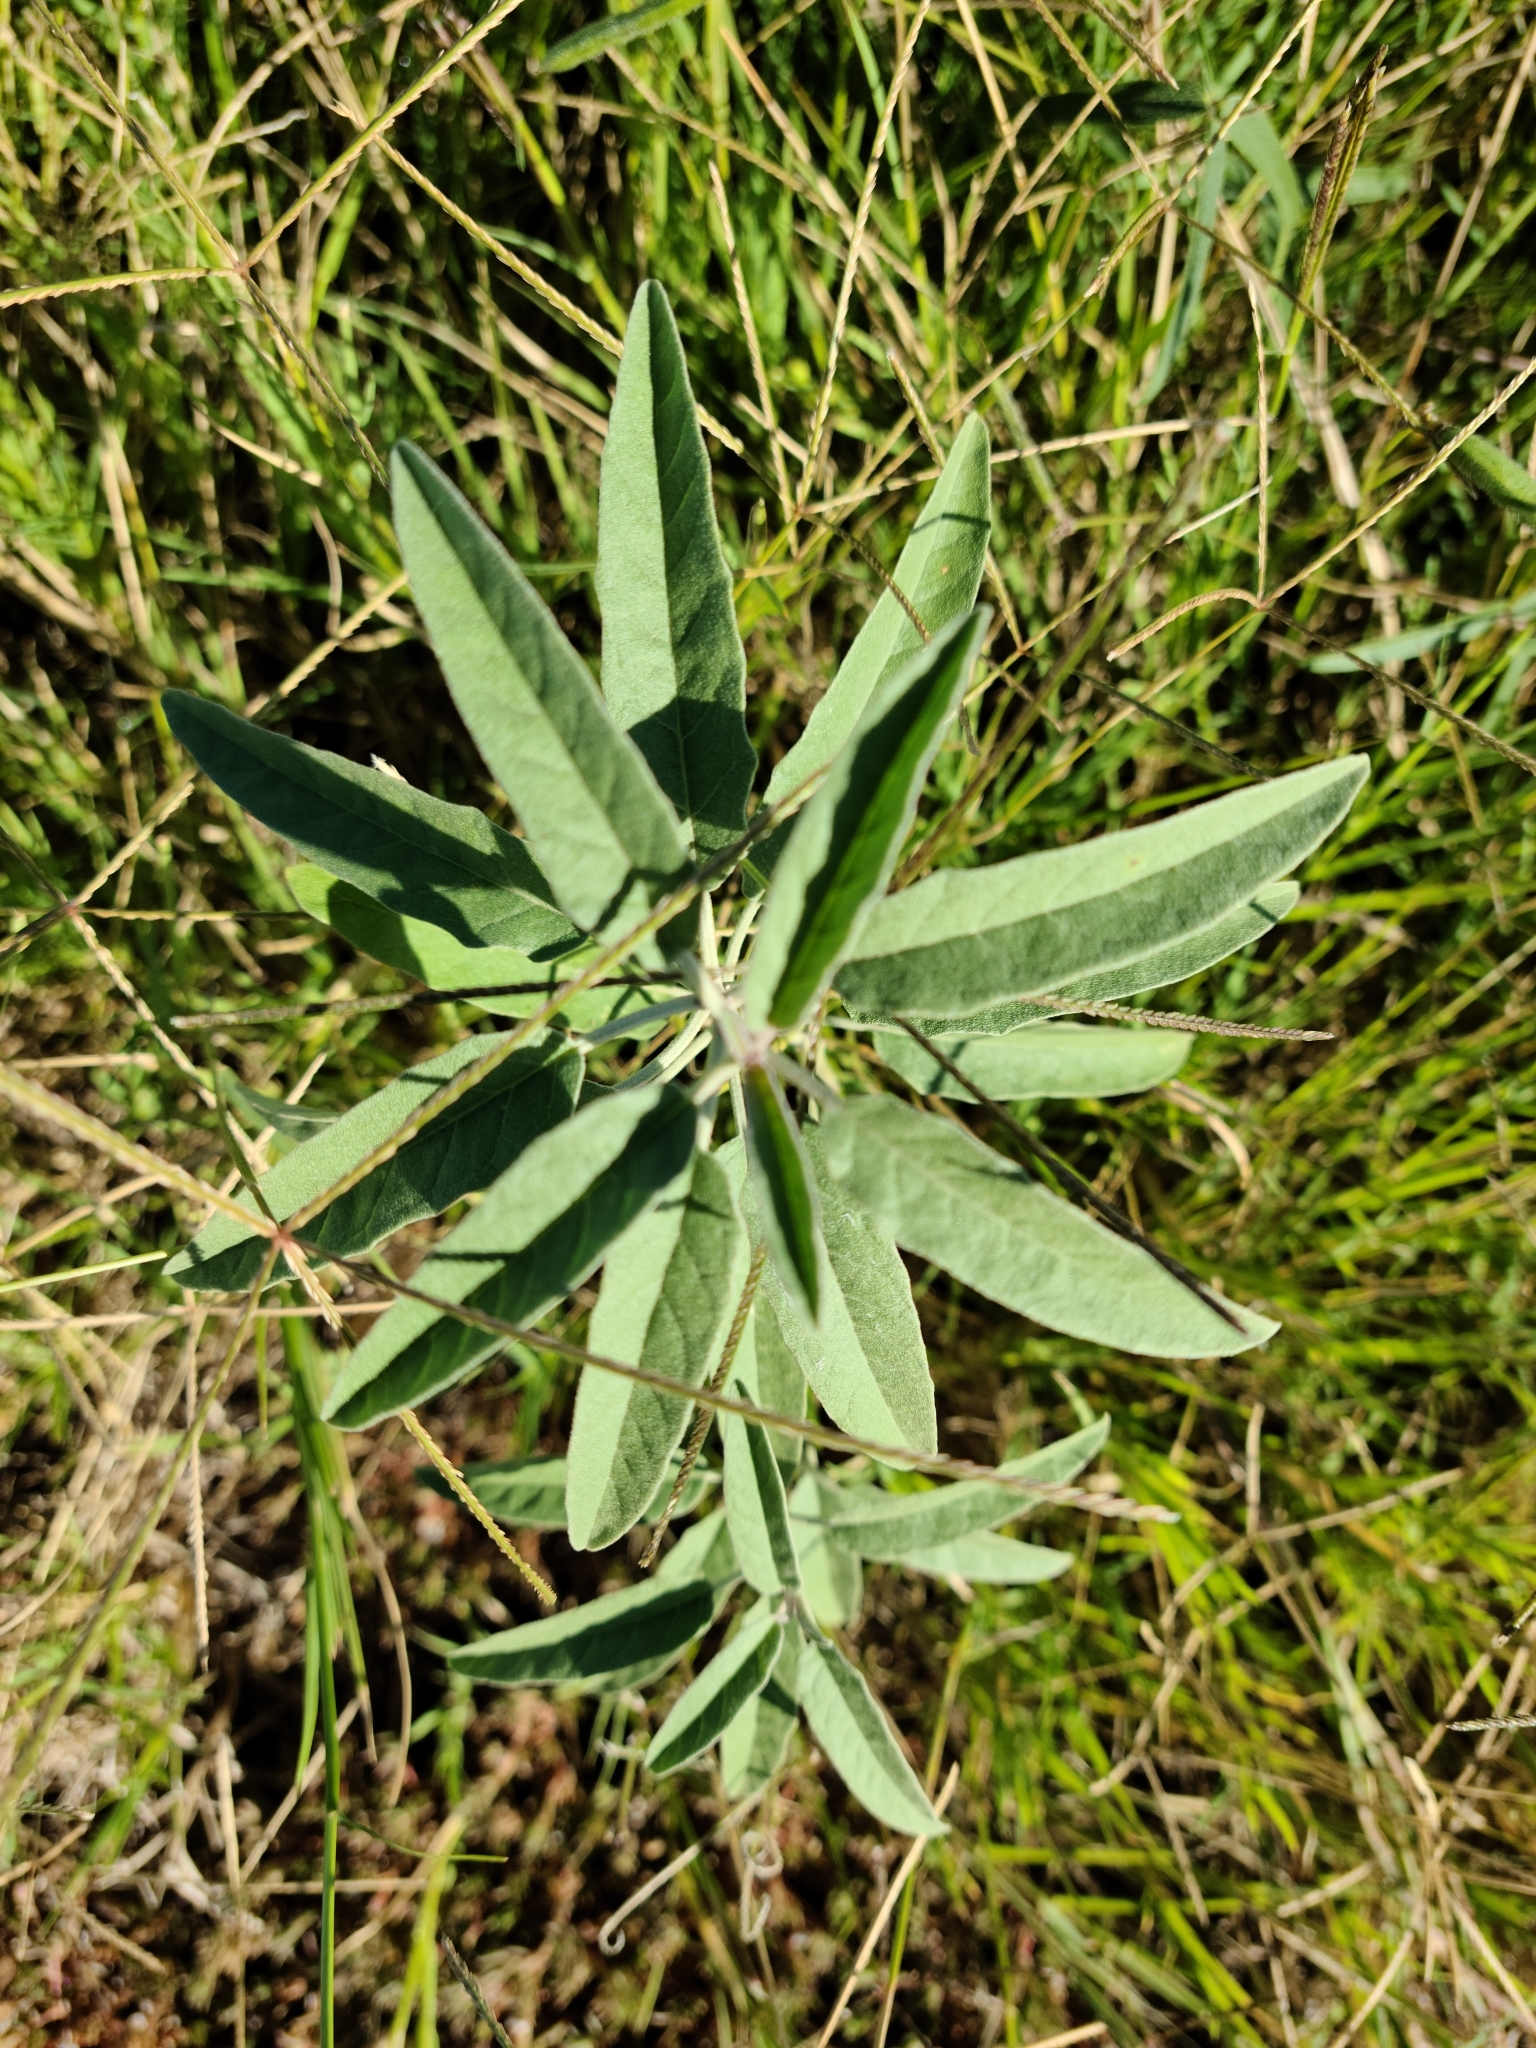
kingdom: Plantae
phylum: Tracheophyta
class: Magnoliopsida
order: Solanales
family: Solanaceae
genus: Solanum
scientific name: Solanum elaeagnifolium
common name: Silverleaf nightshade
